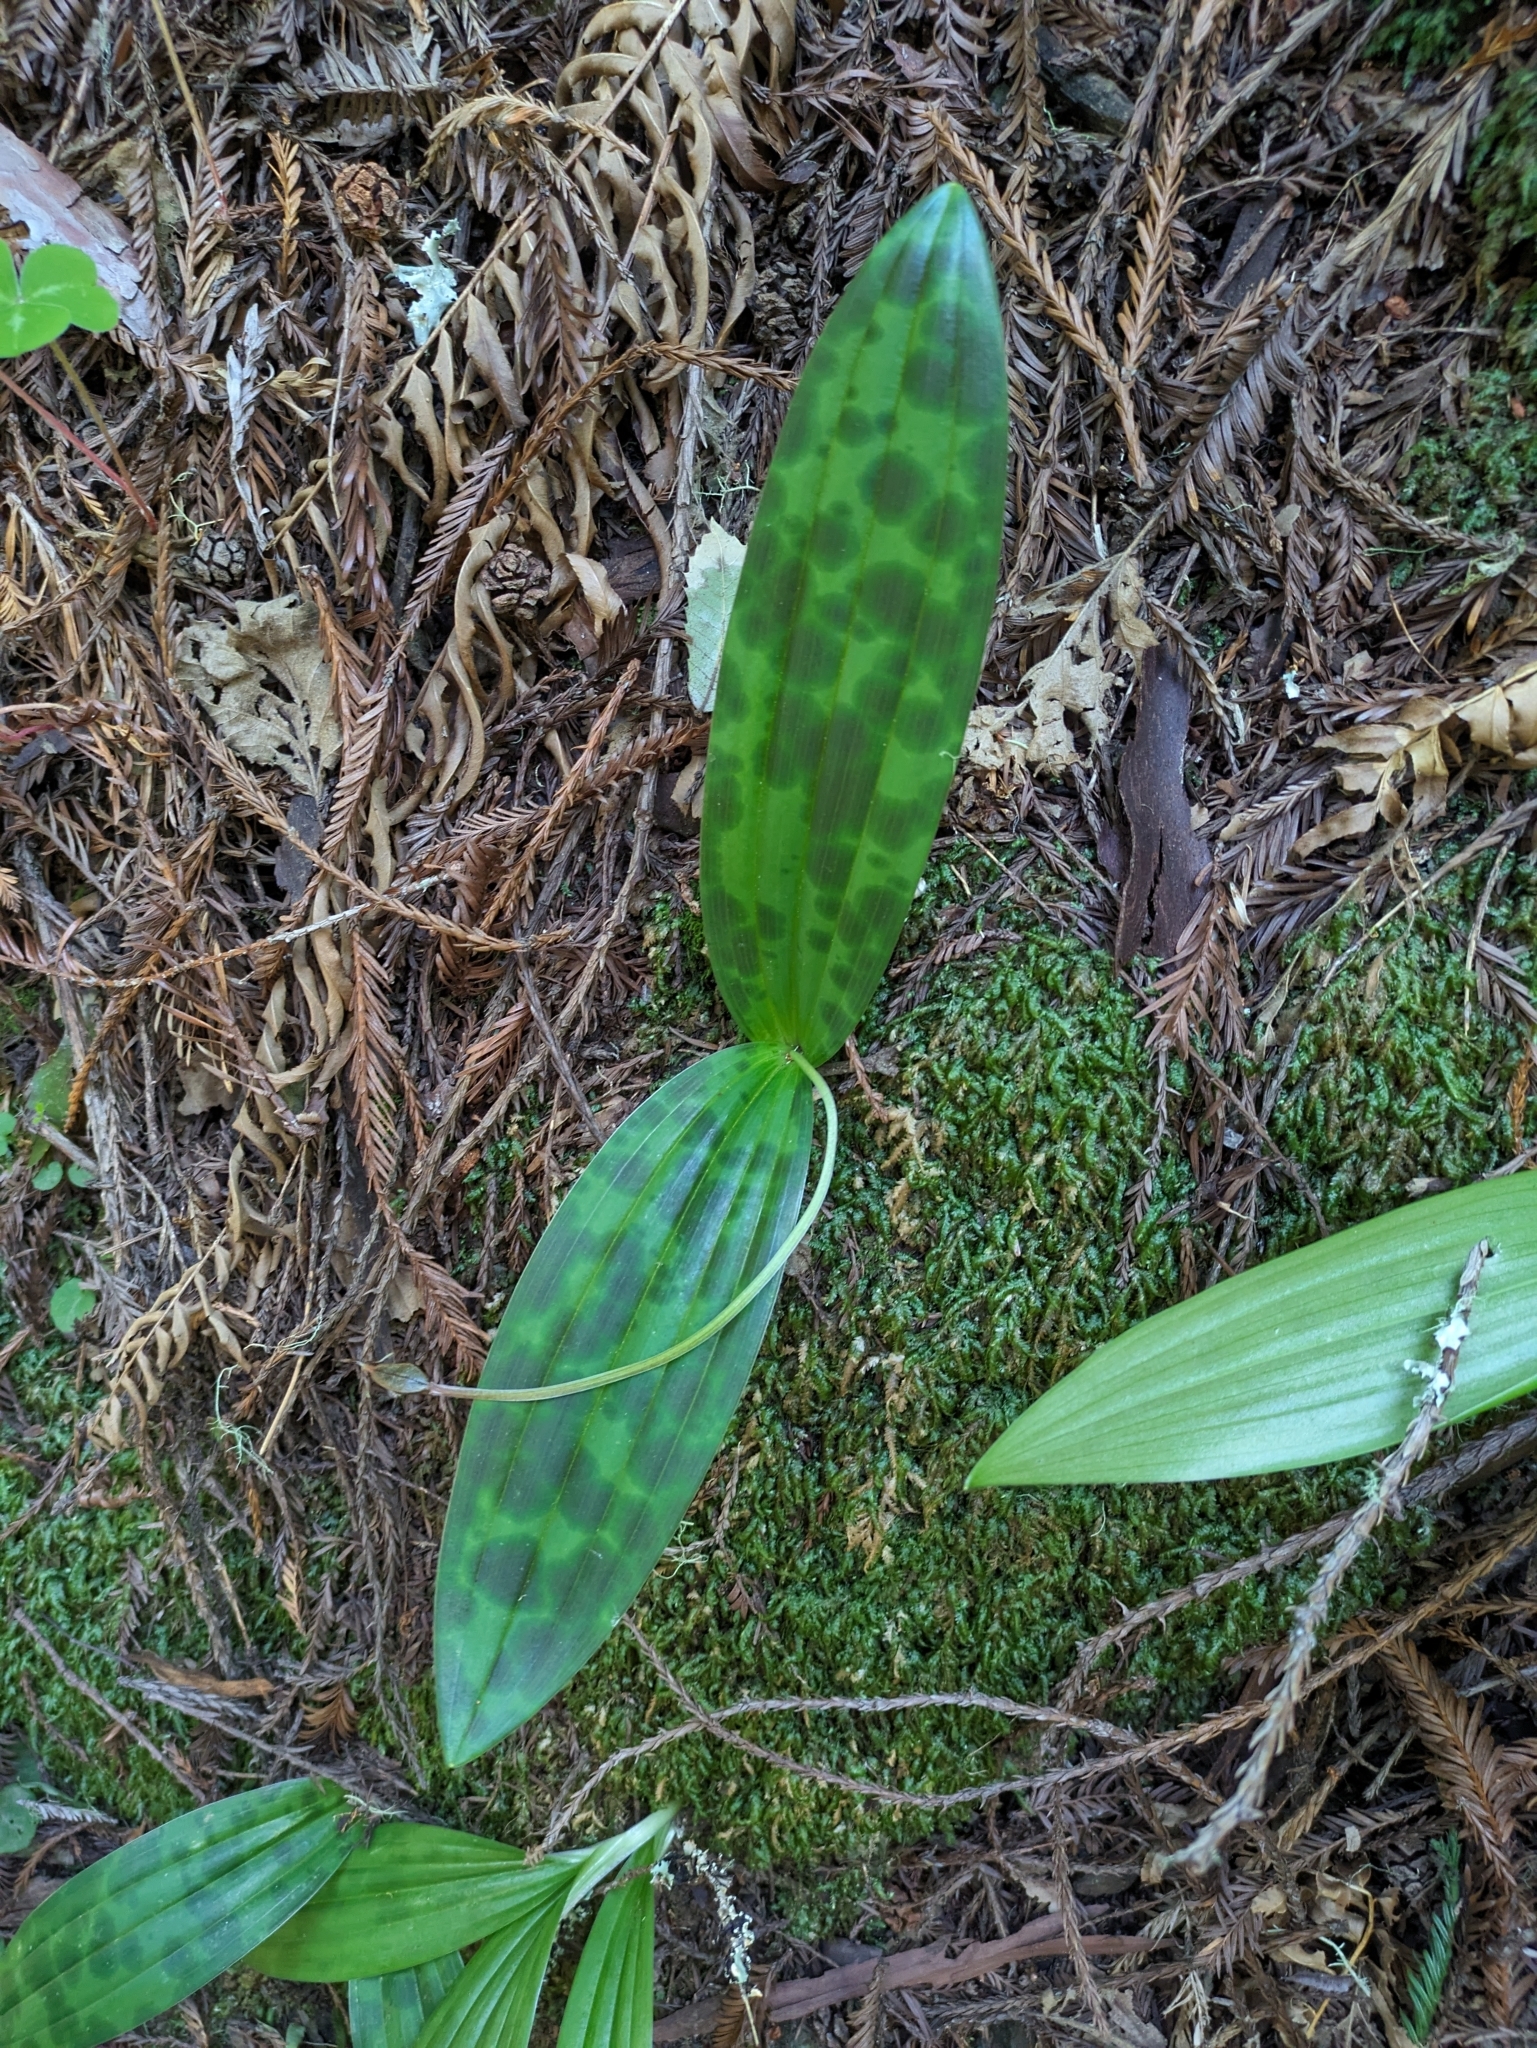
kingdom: Plantae
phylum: Tracheophyta
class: Liliopsida
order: Liliales
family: Liliaceae
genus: Scoliopus
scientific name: Scoliopus bigelovii
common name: Foetid adder's-tongue
